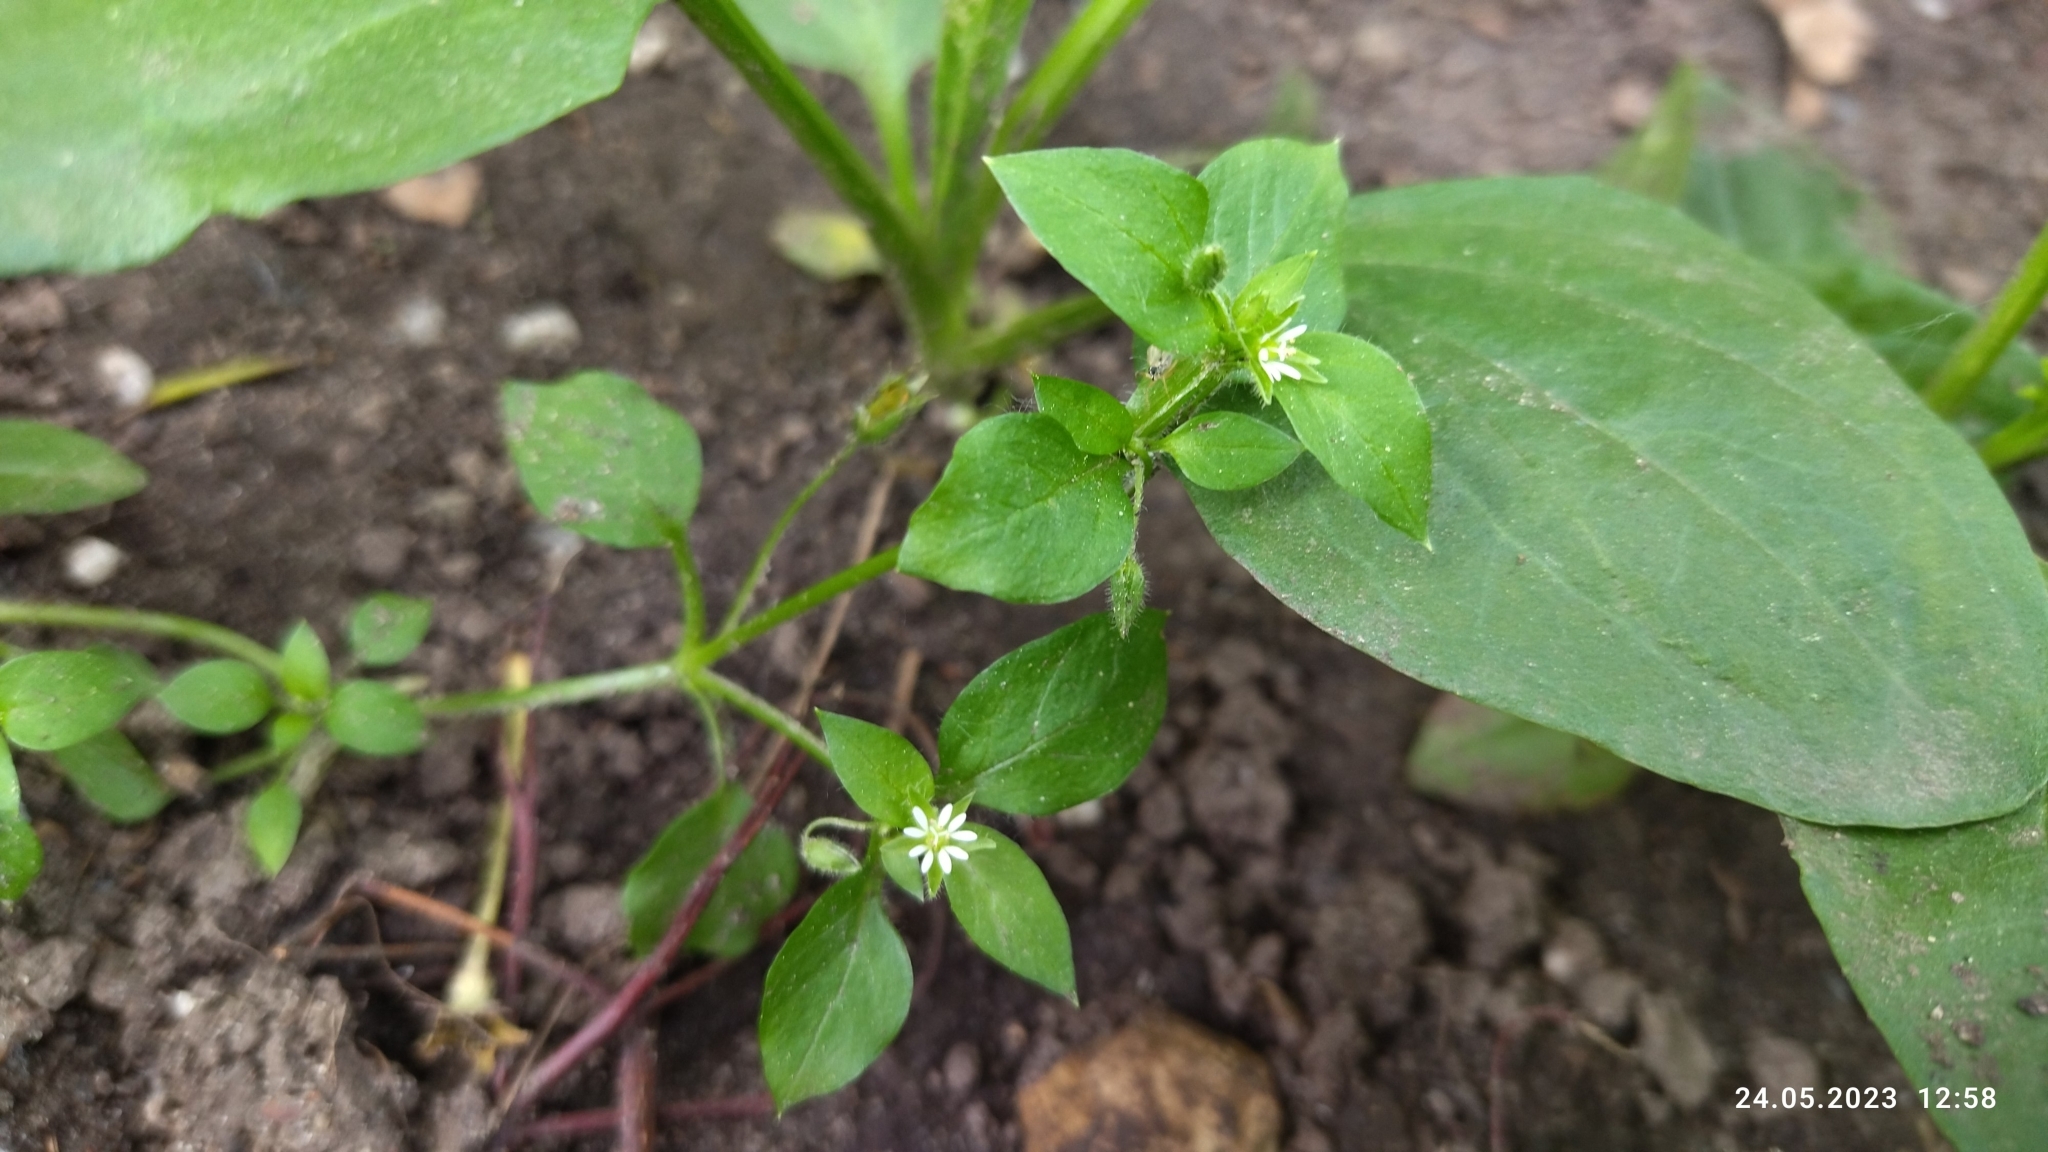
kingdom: Plantae
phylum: Tracheophyta
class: Magnoliopsida
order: Caryophyllales
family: Caryophyllaceae
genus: Stellaria
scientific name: Stellaria media
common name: Common chickweed
